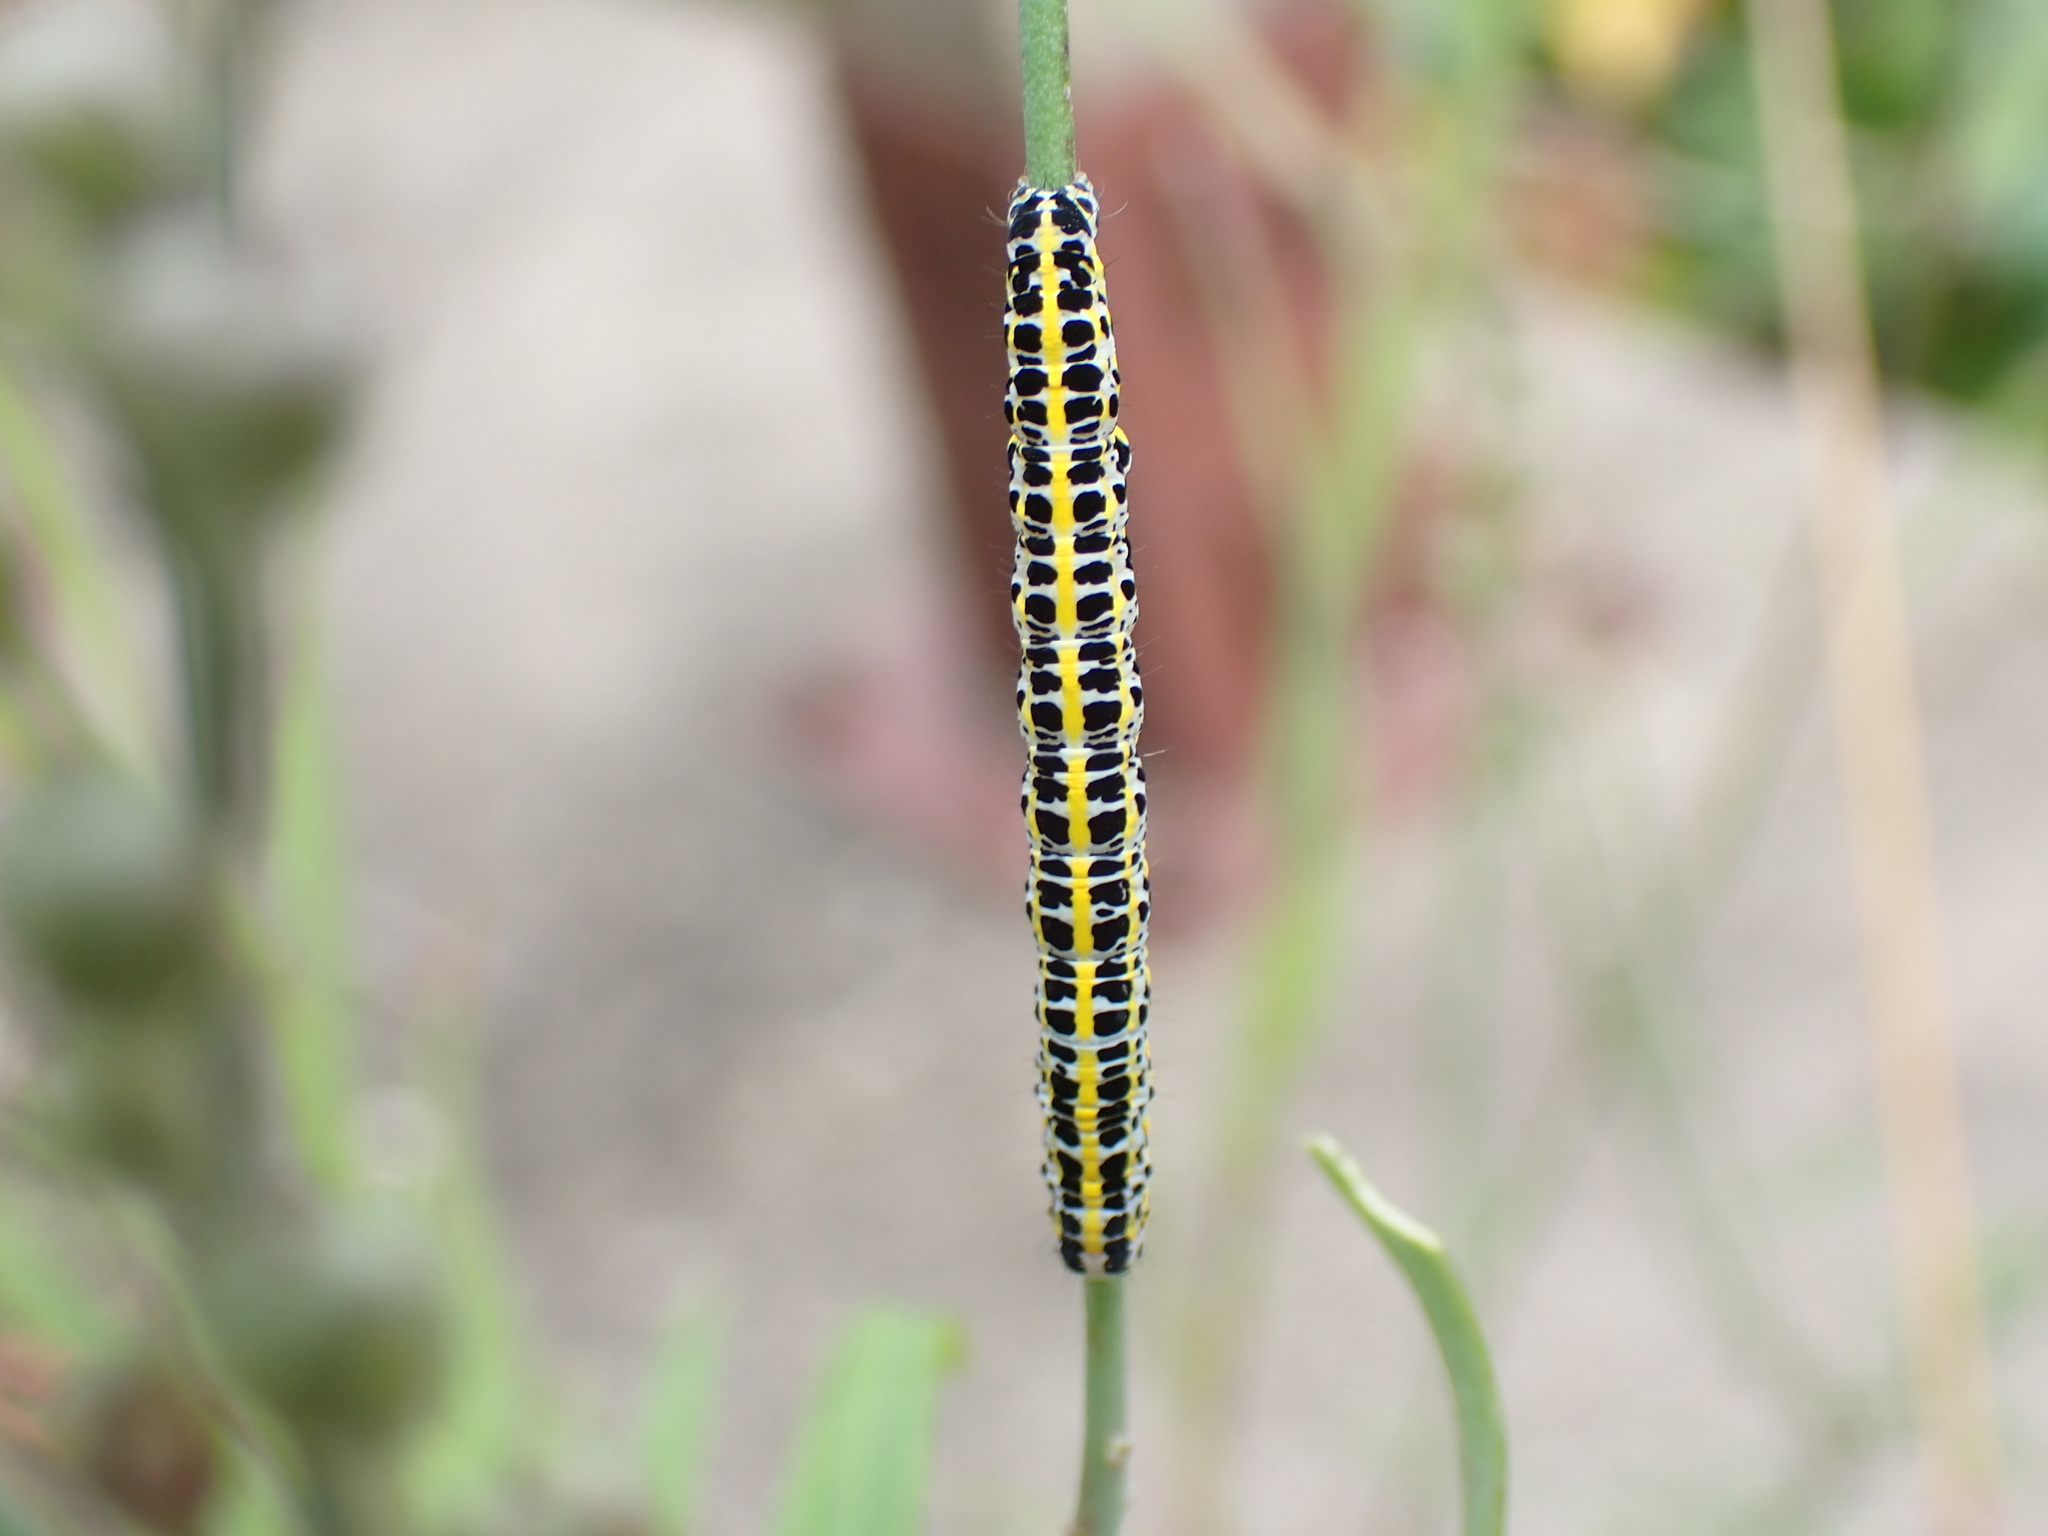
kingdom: Animalia
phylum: Arthropoda
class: Insecta
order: Lepidoptera
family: Noctuidae
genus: Calophasia
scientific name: Calophasia lunula
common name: Toadflax brocade
